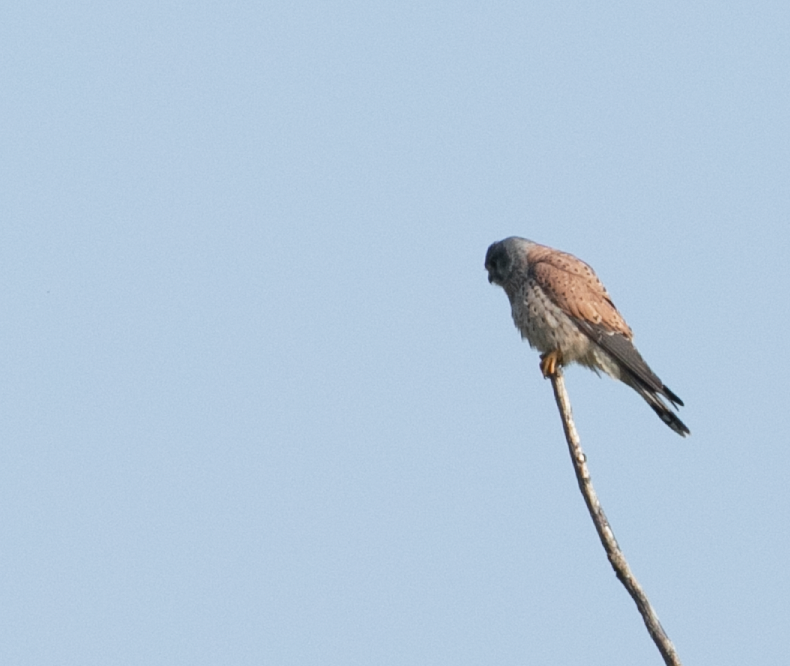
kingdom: Animalia
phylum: Chordata
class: Aves
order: Falconiformes
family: Falconidae
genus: Falco
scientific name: Falco tinnunculus
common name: Common kestrel
